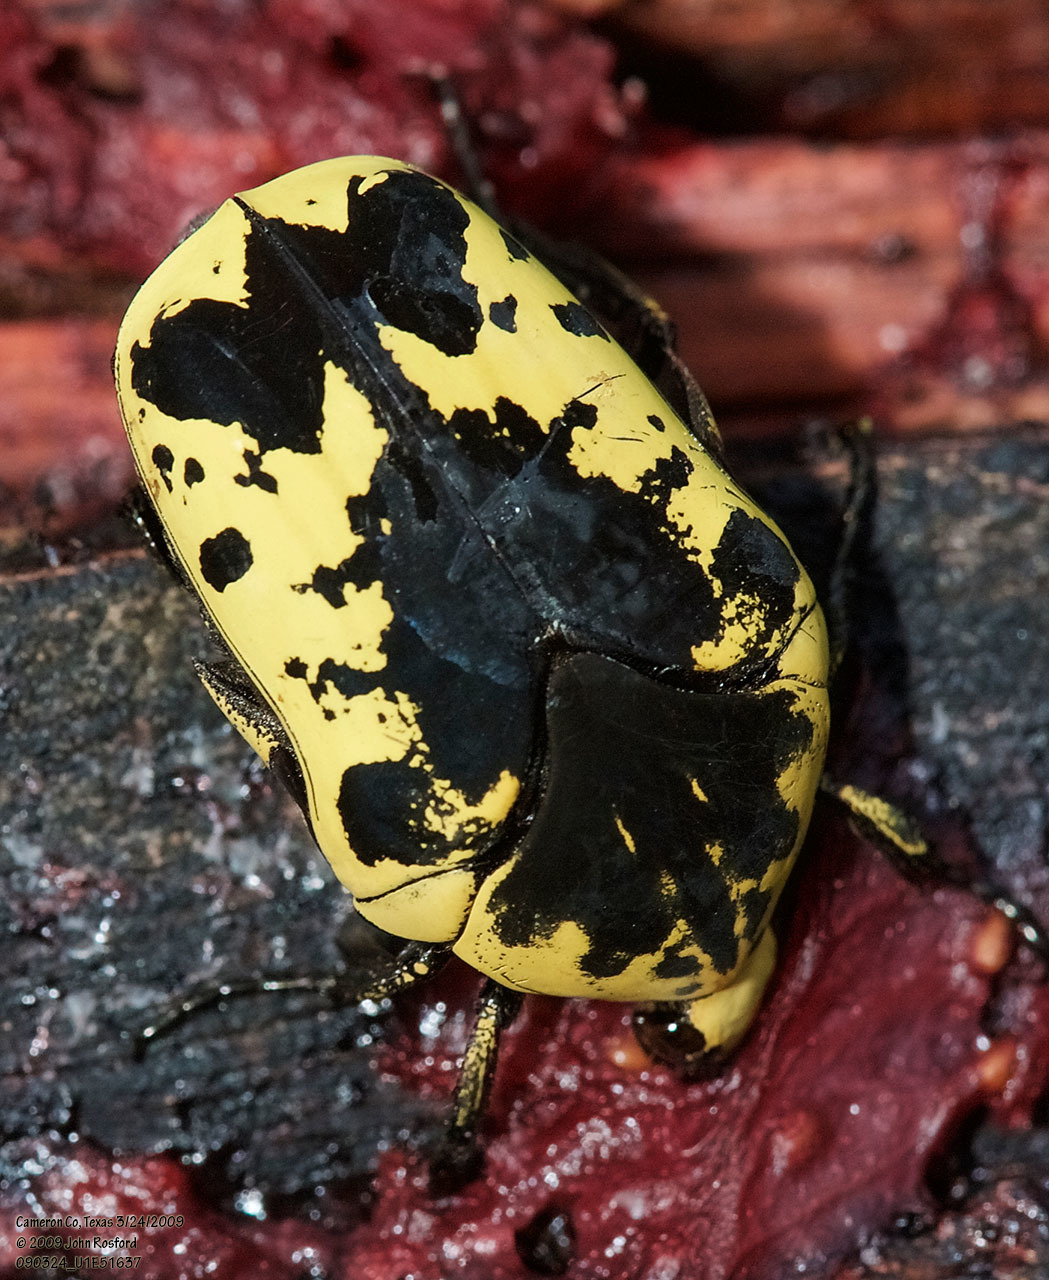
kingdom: Animalia
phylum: Arthropoda
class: Insecta
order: Coleoptera
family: Scarabaeidae
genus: Gymnetis
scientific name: Gymnetis thula
